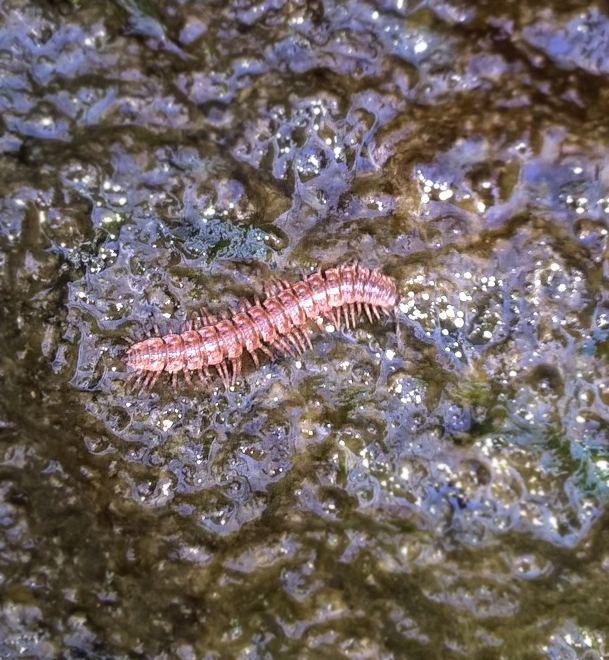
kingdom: Animalia
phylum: Arthropoda
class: Diplopoda
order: Polydesmida
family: Polydesmidae
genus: Pseudopolydesmus
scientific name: Pseudopolydesmus serratus
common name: Common pink flat-back millipede
